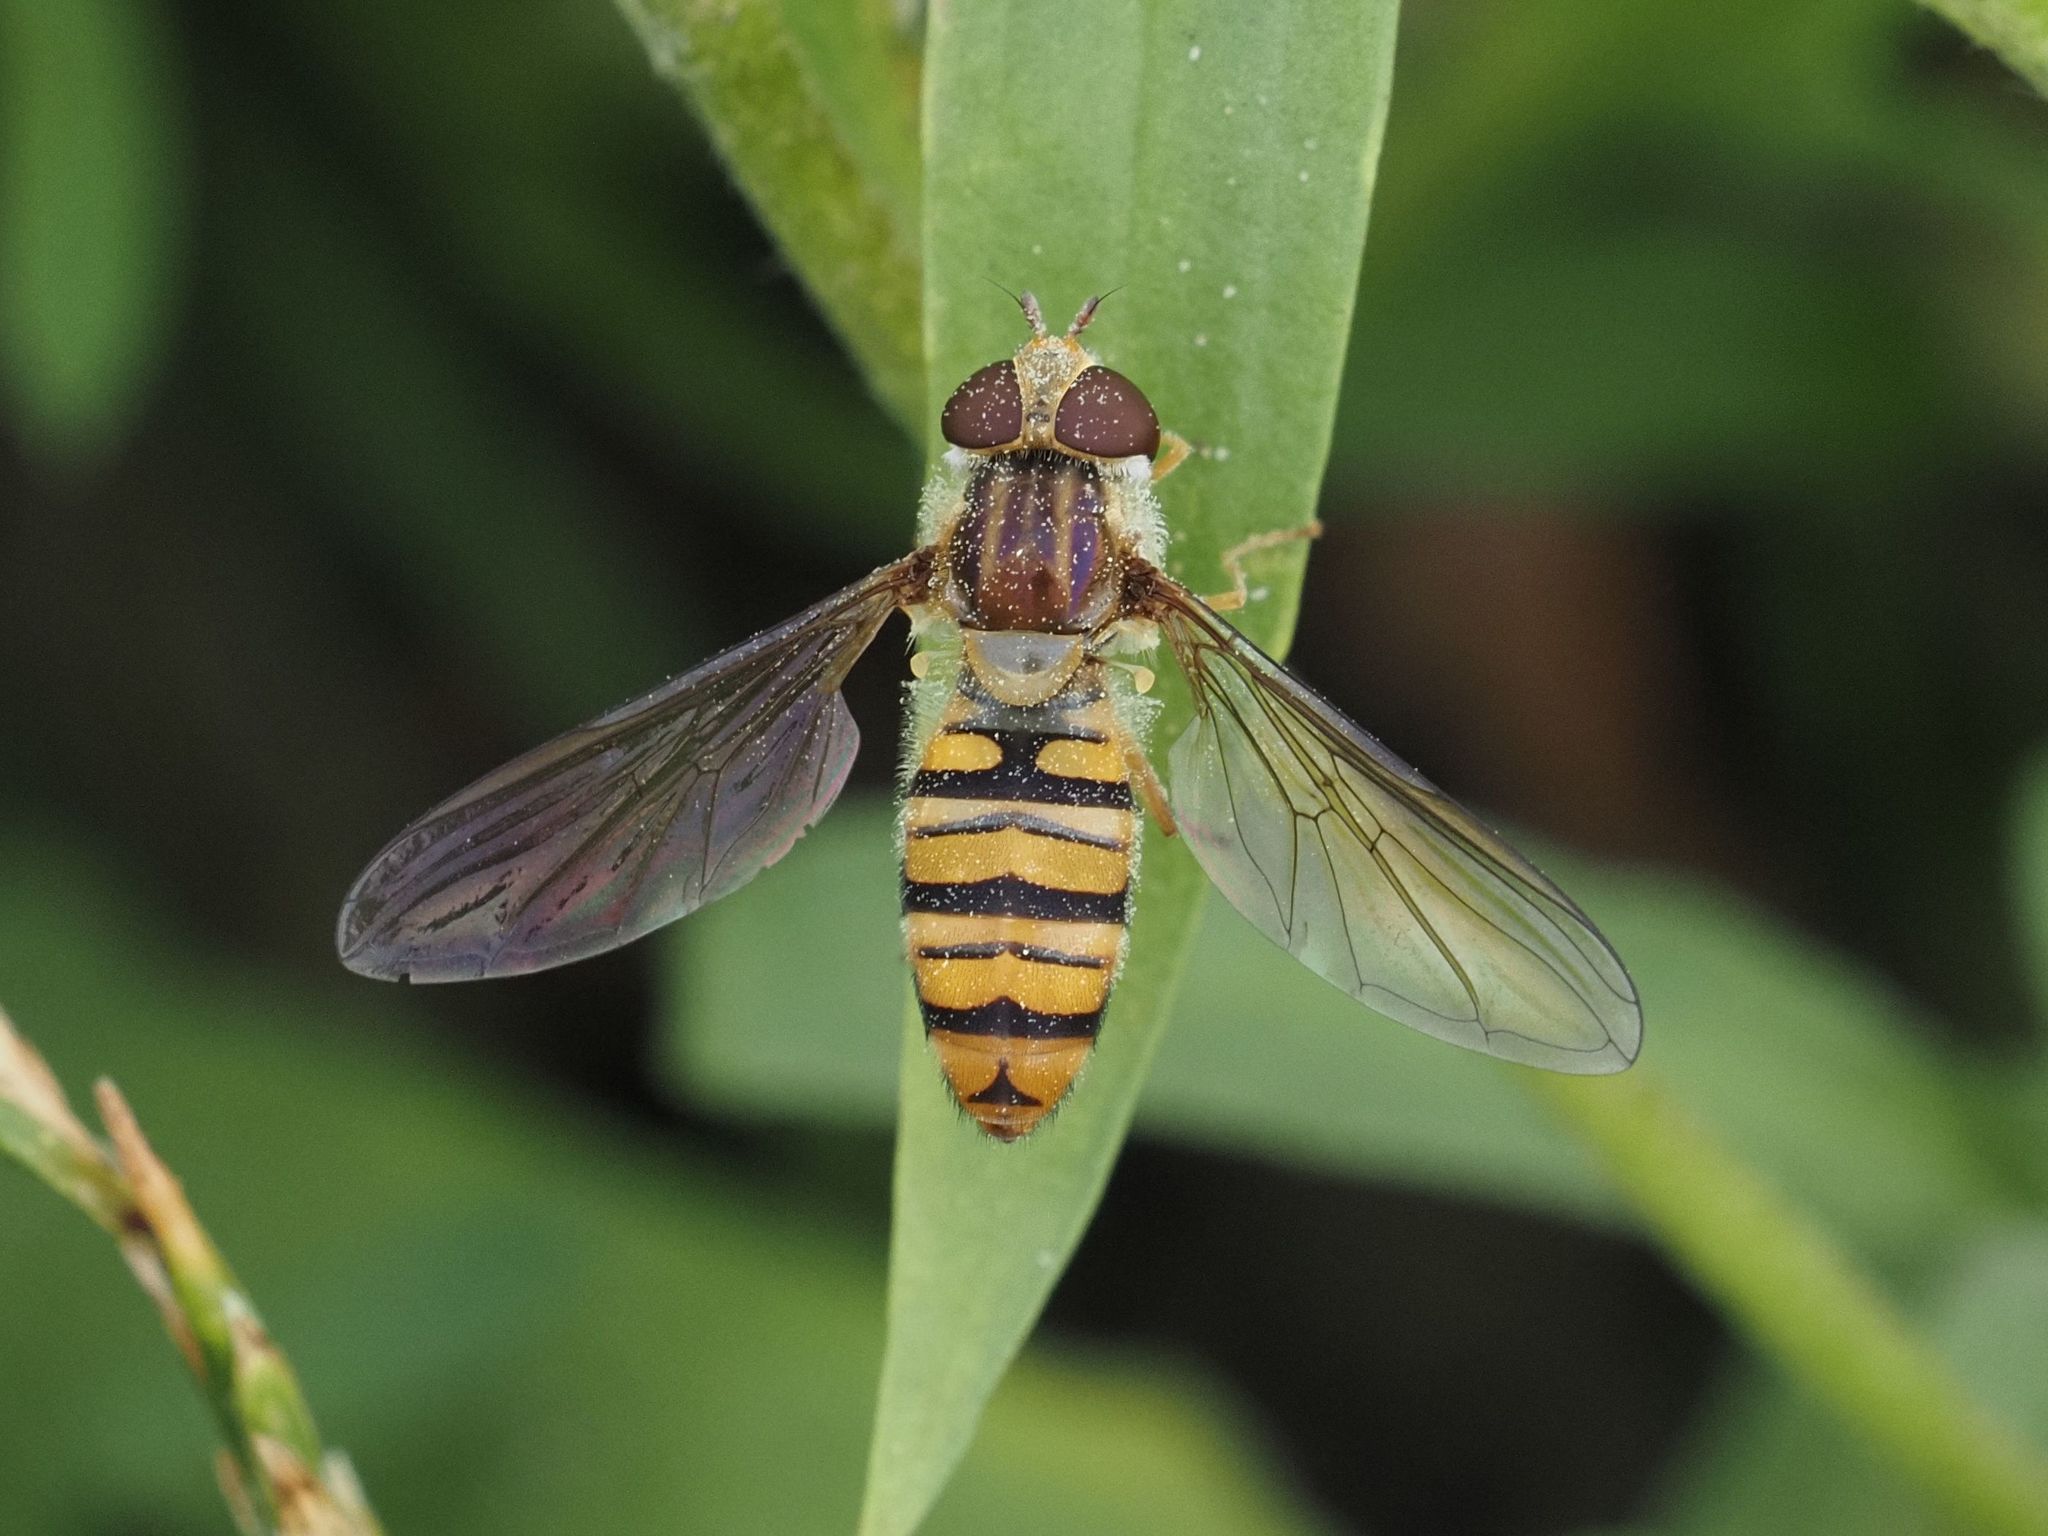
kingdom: Animalia
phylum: Arthropoda
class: Insecta
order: Diptera
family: Syrphidae
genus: Episyrphus
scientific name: Episyrphus balteatus
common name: Marmalade hoverfly
